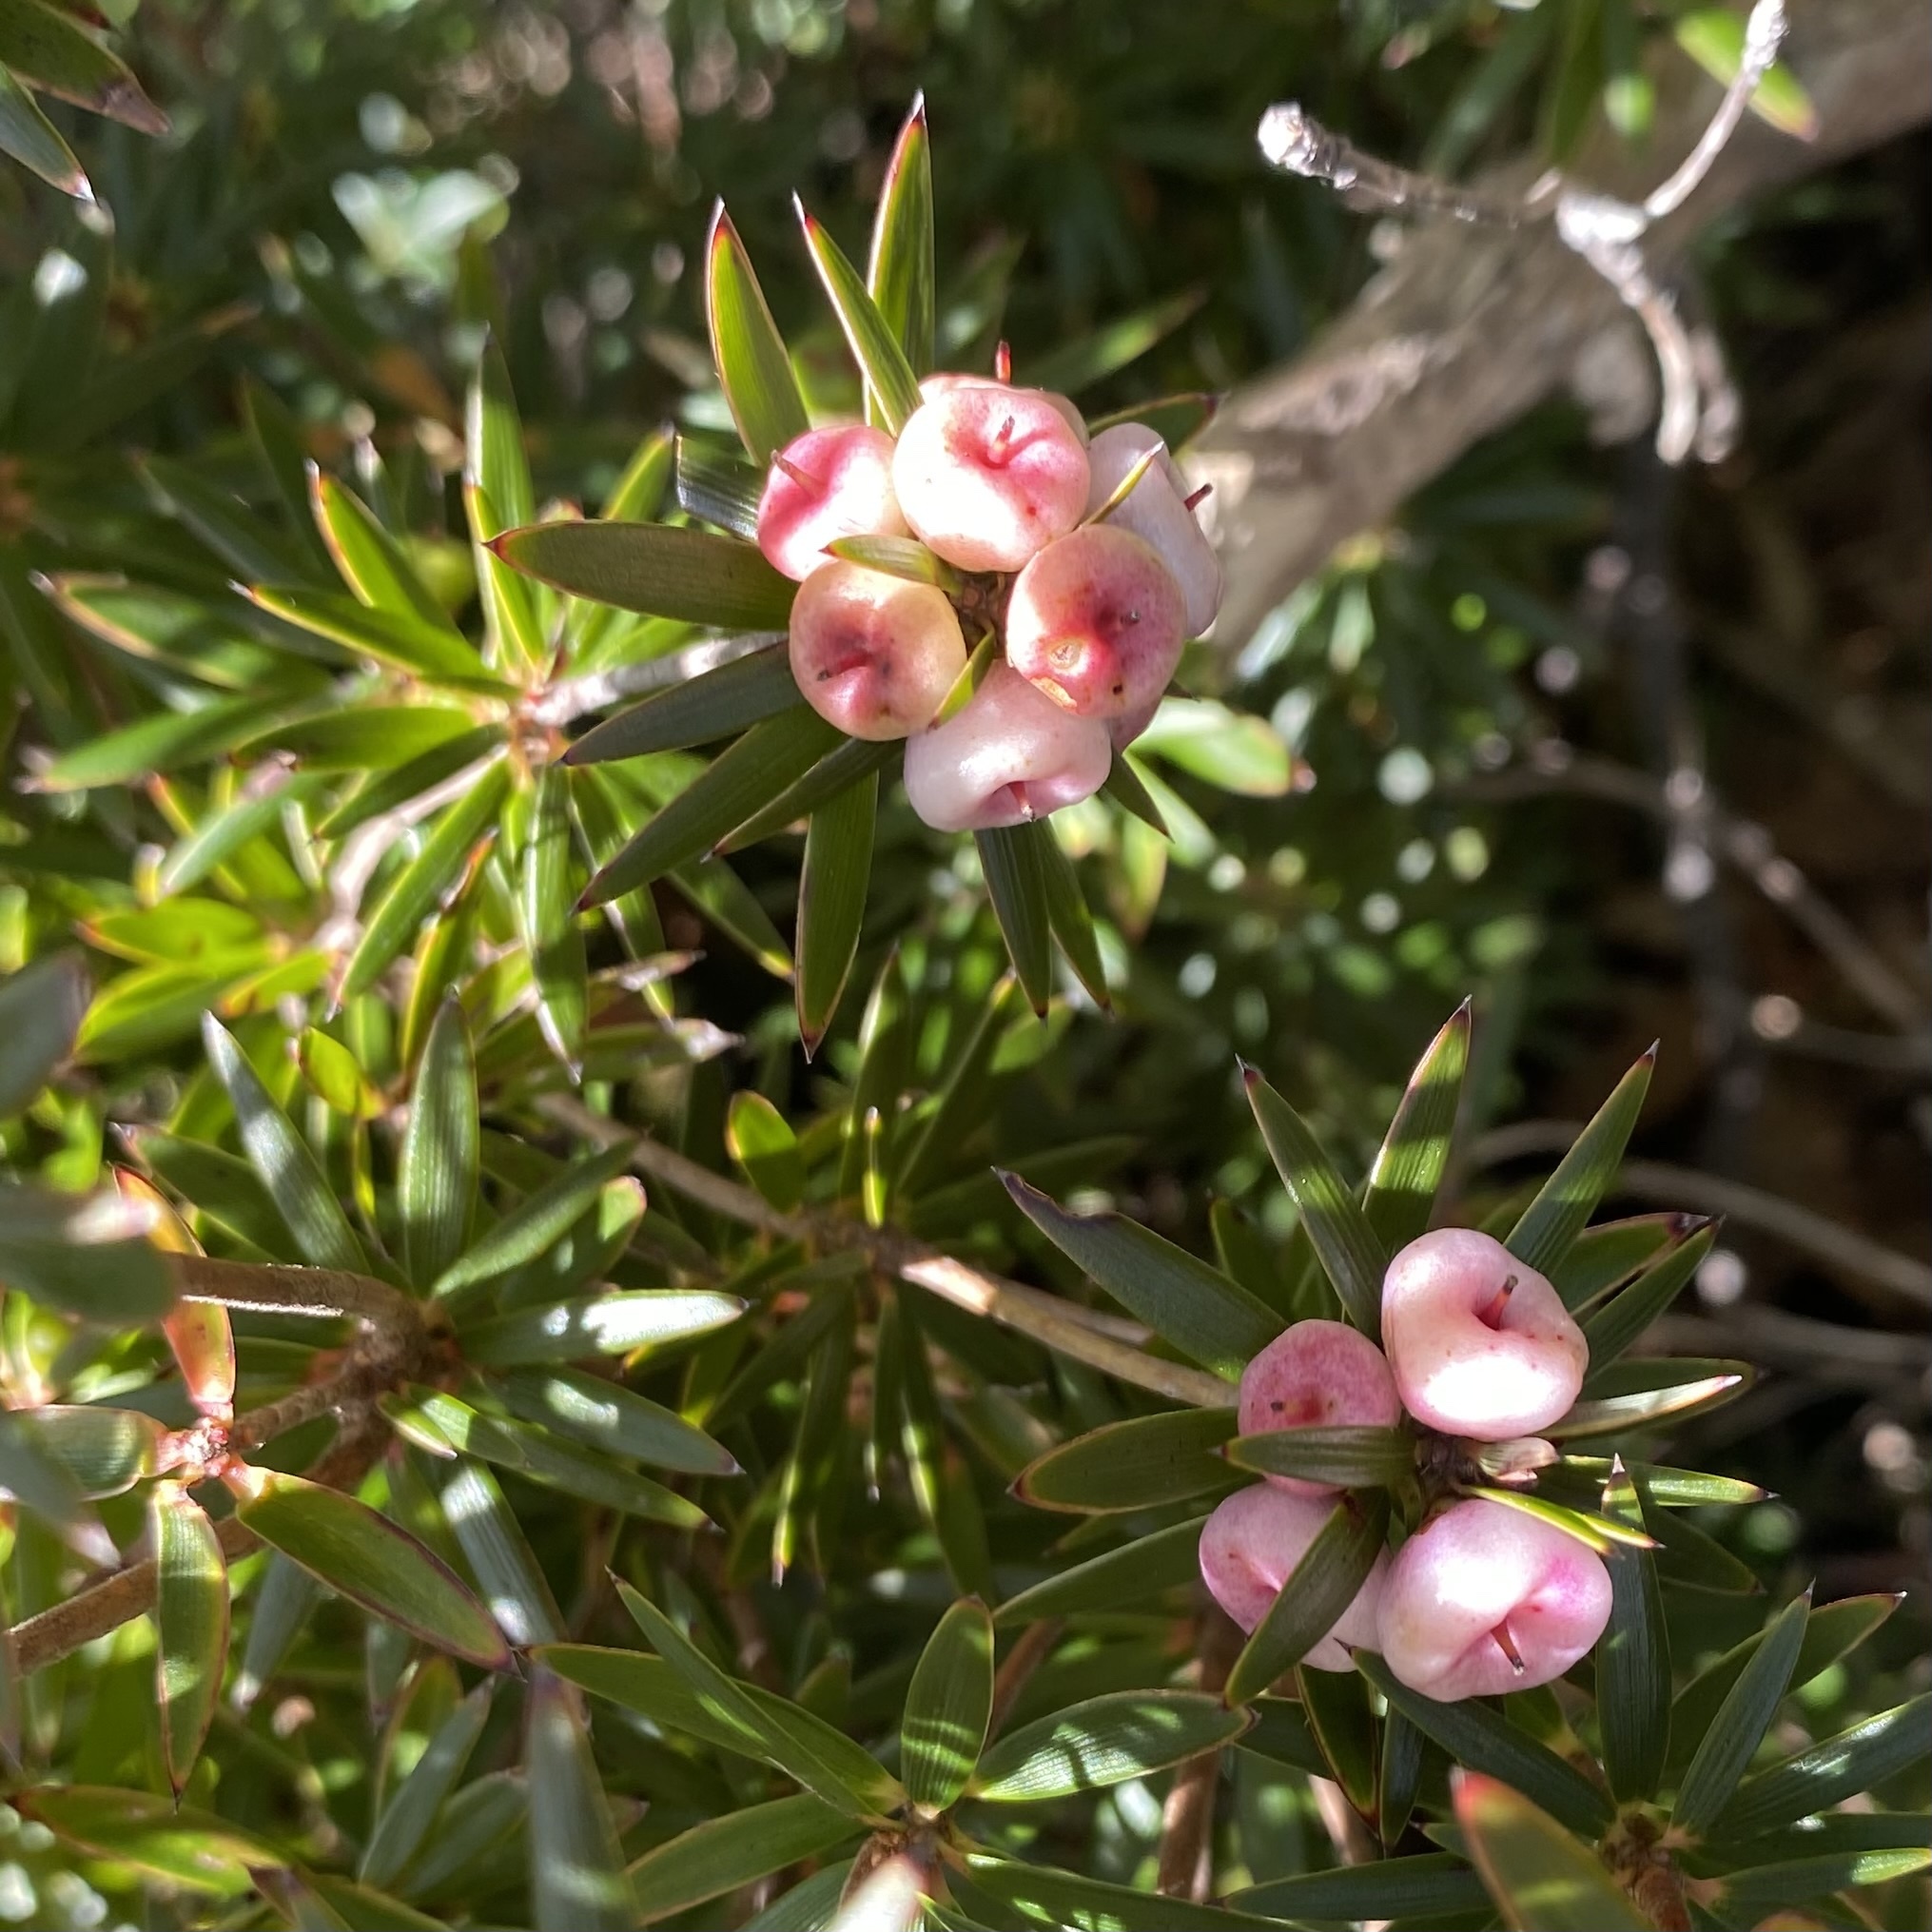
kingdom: Plantae
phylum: Tracheophyta
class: Magnoliopsida
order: Ericales
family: Ericaceae
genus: Cyathodes
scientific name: Cyathodes glauca
